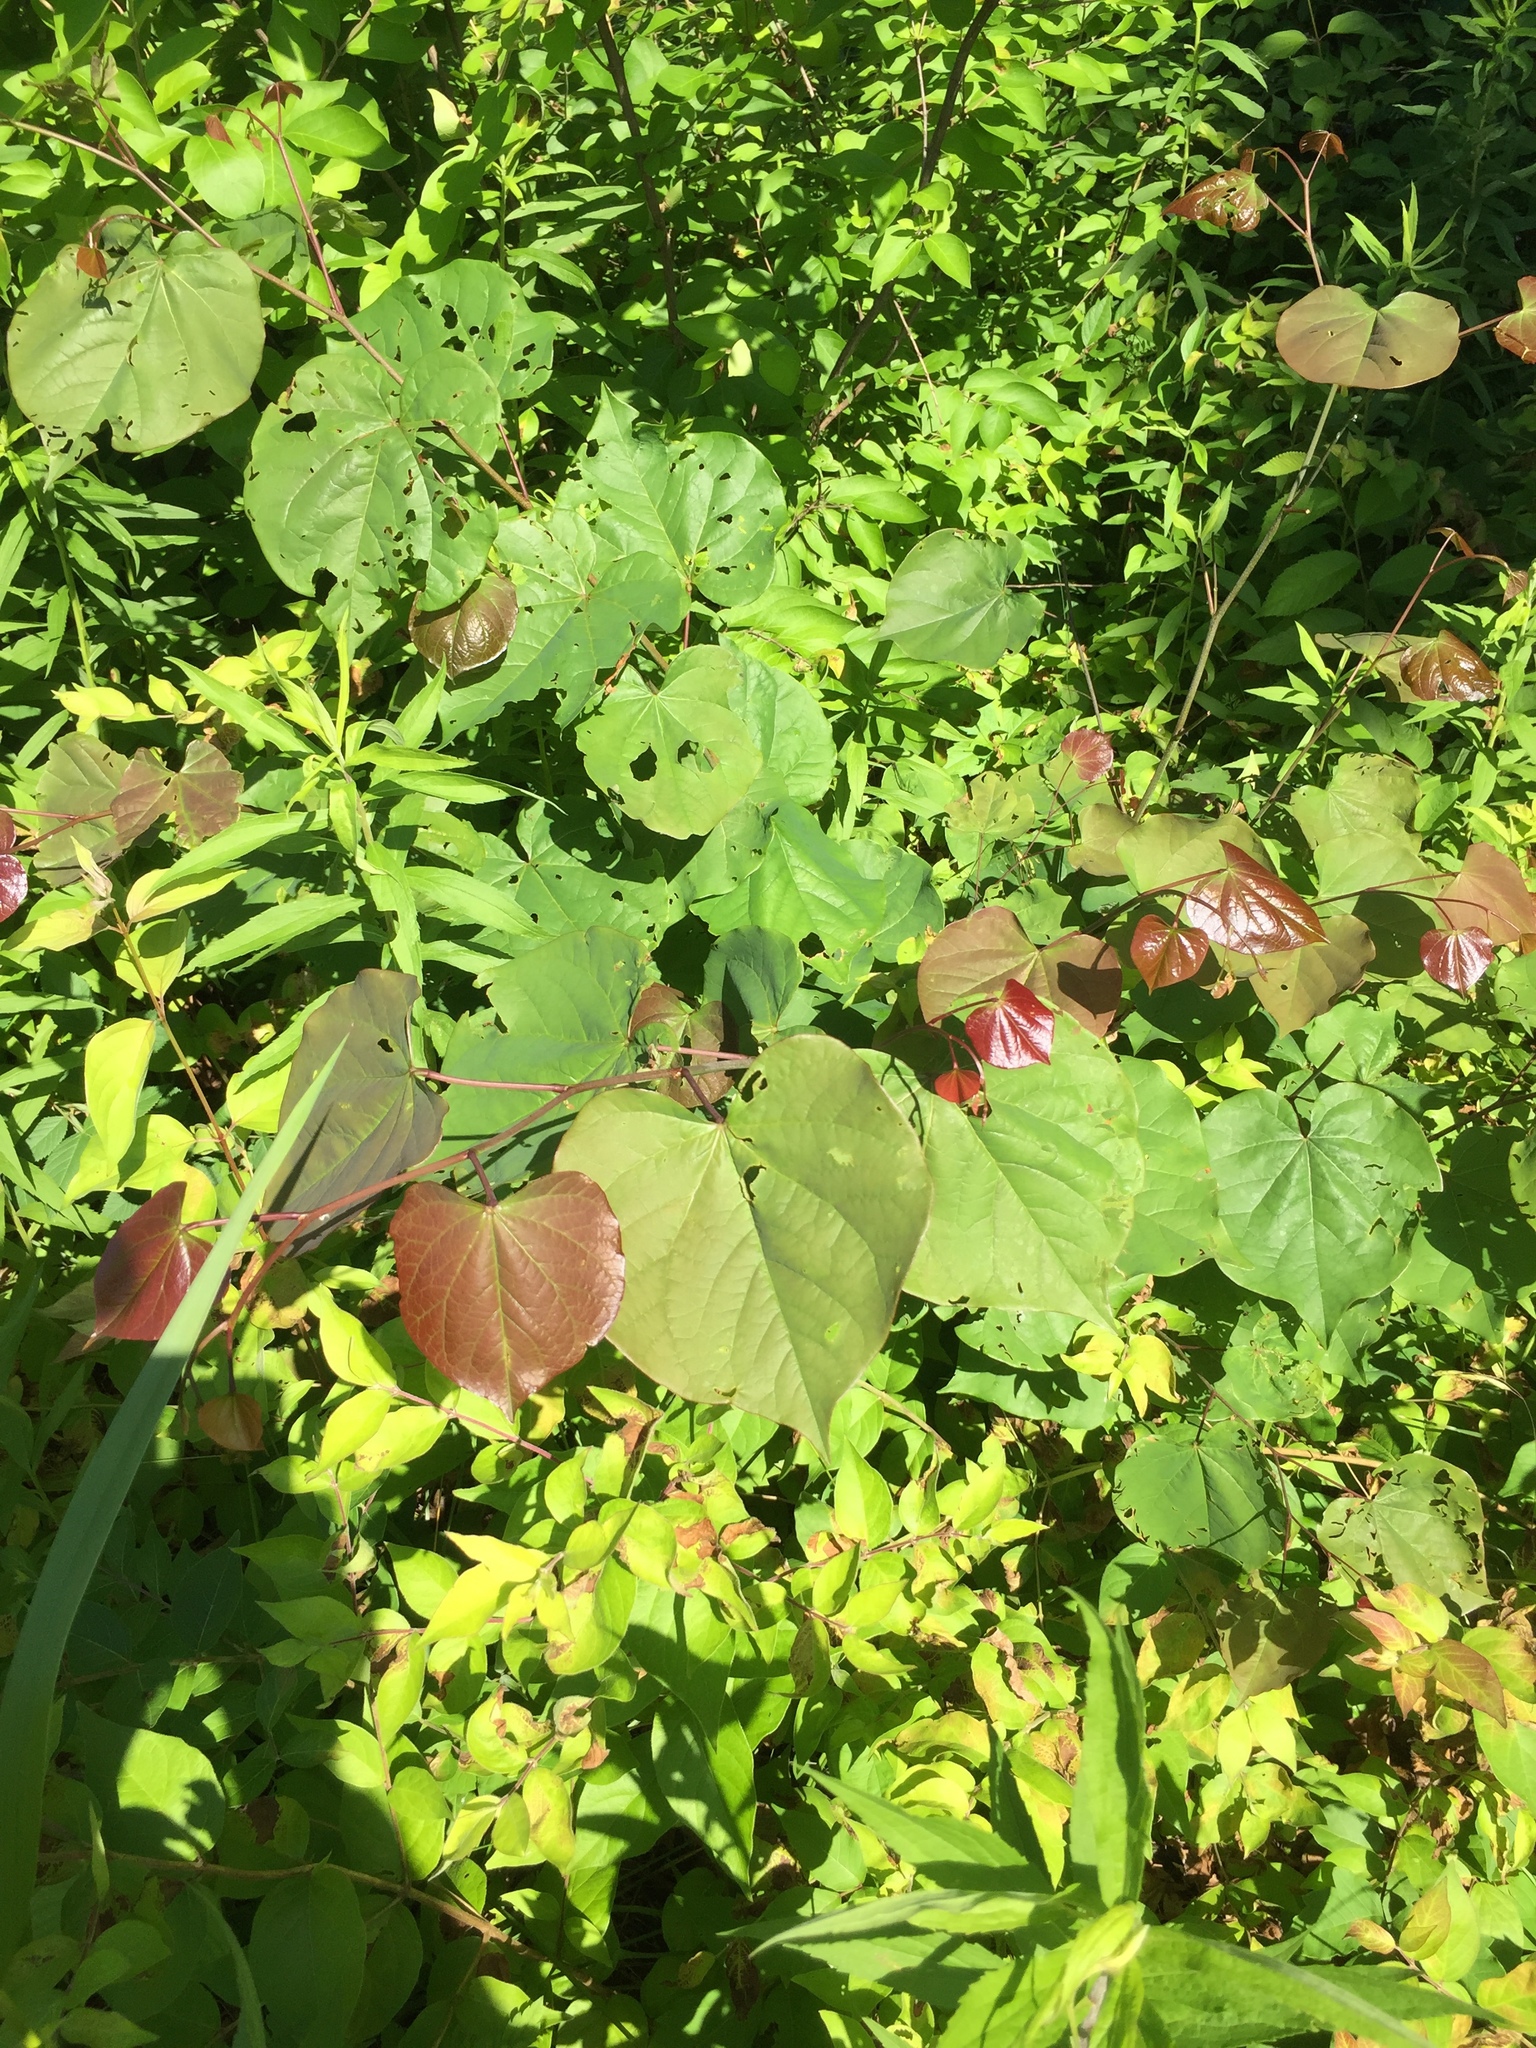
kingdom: Plantae
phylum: Tracheophyta
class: Magnoliopsida
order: Fabales
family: Fabaceae
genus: Cercis
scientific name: Cercis canadensis
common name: Eastern redbud
